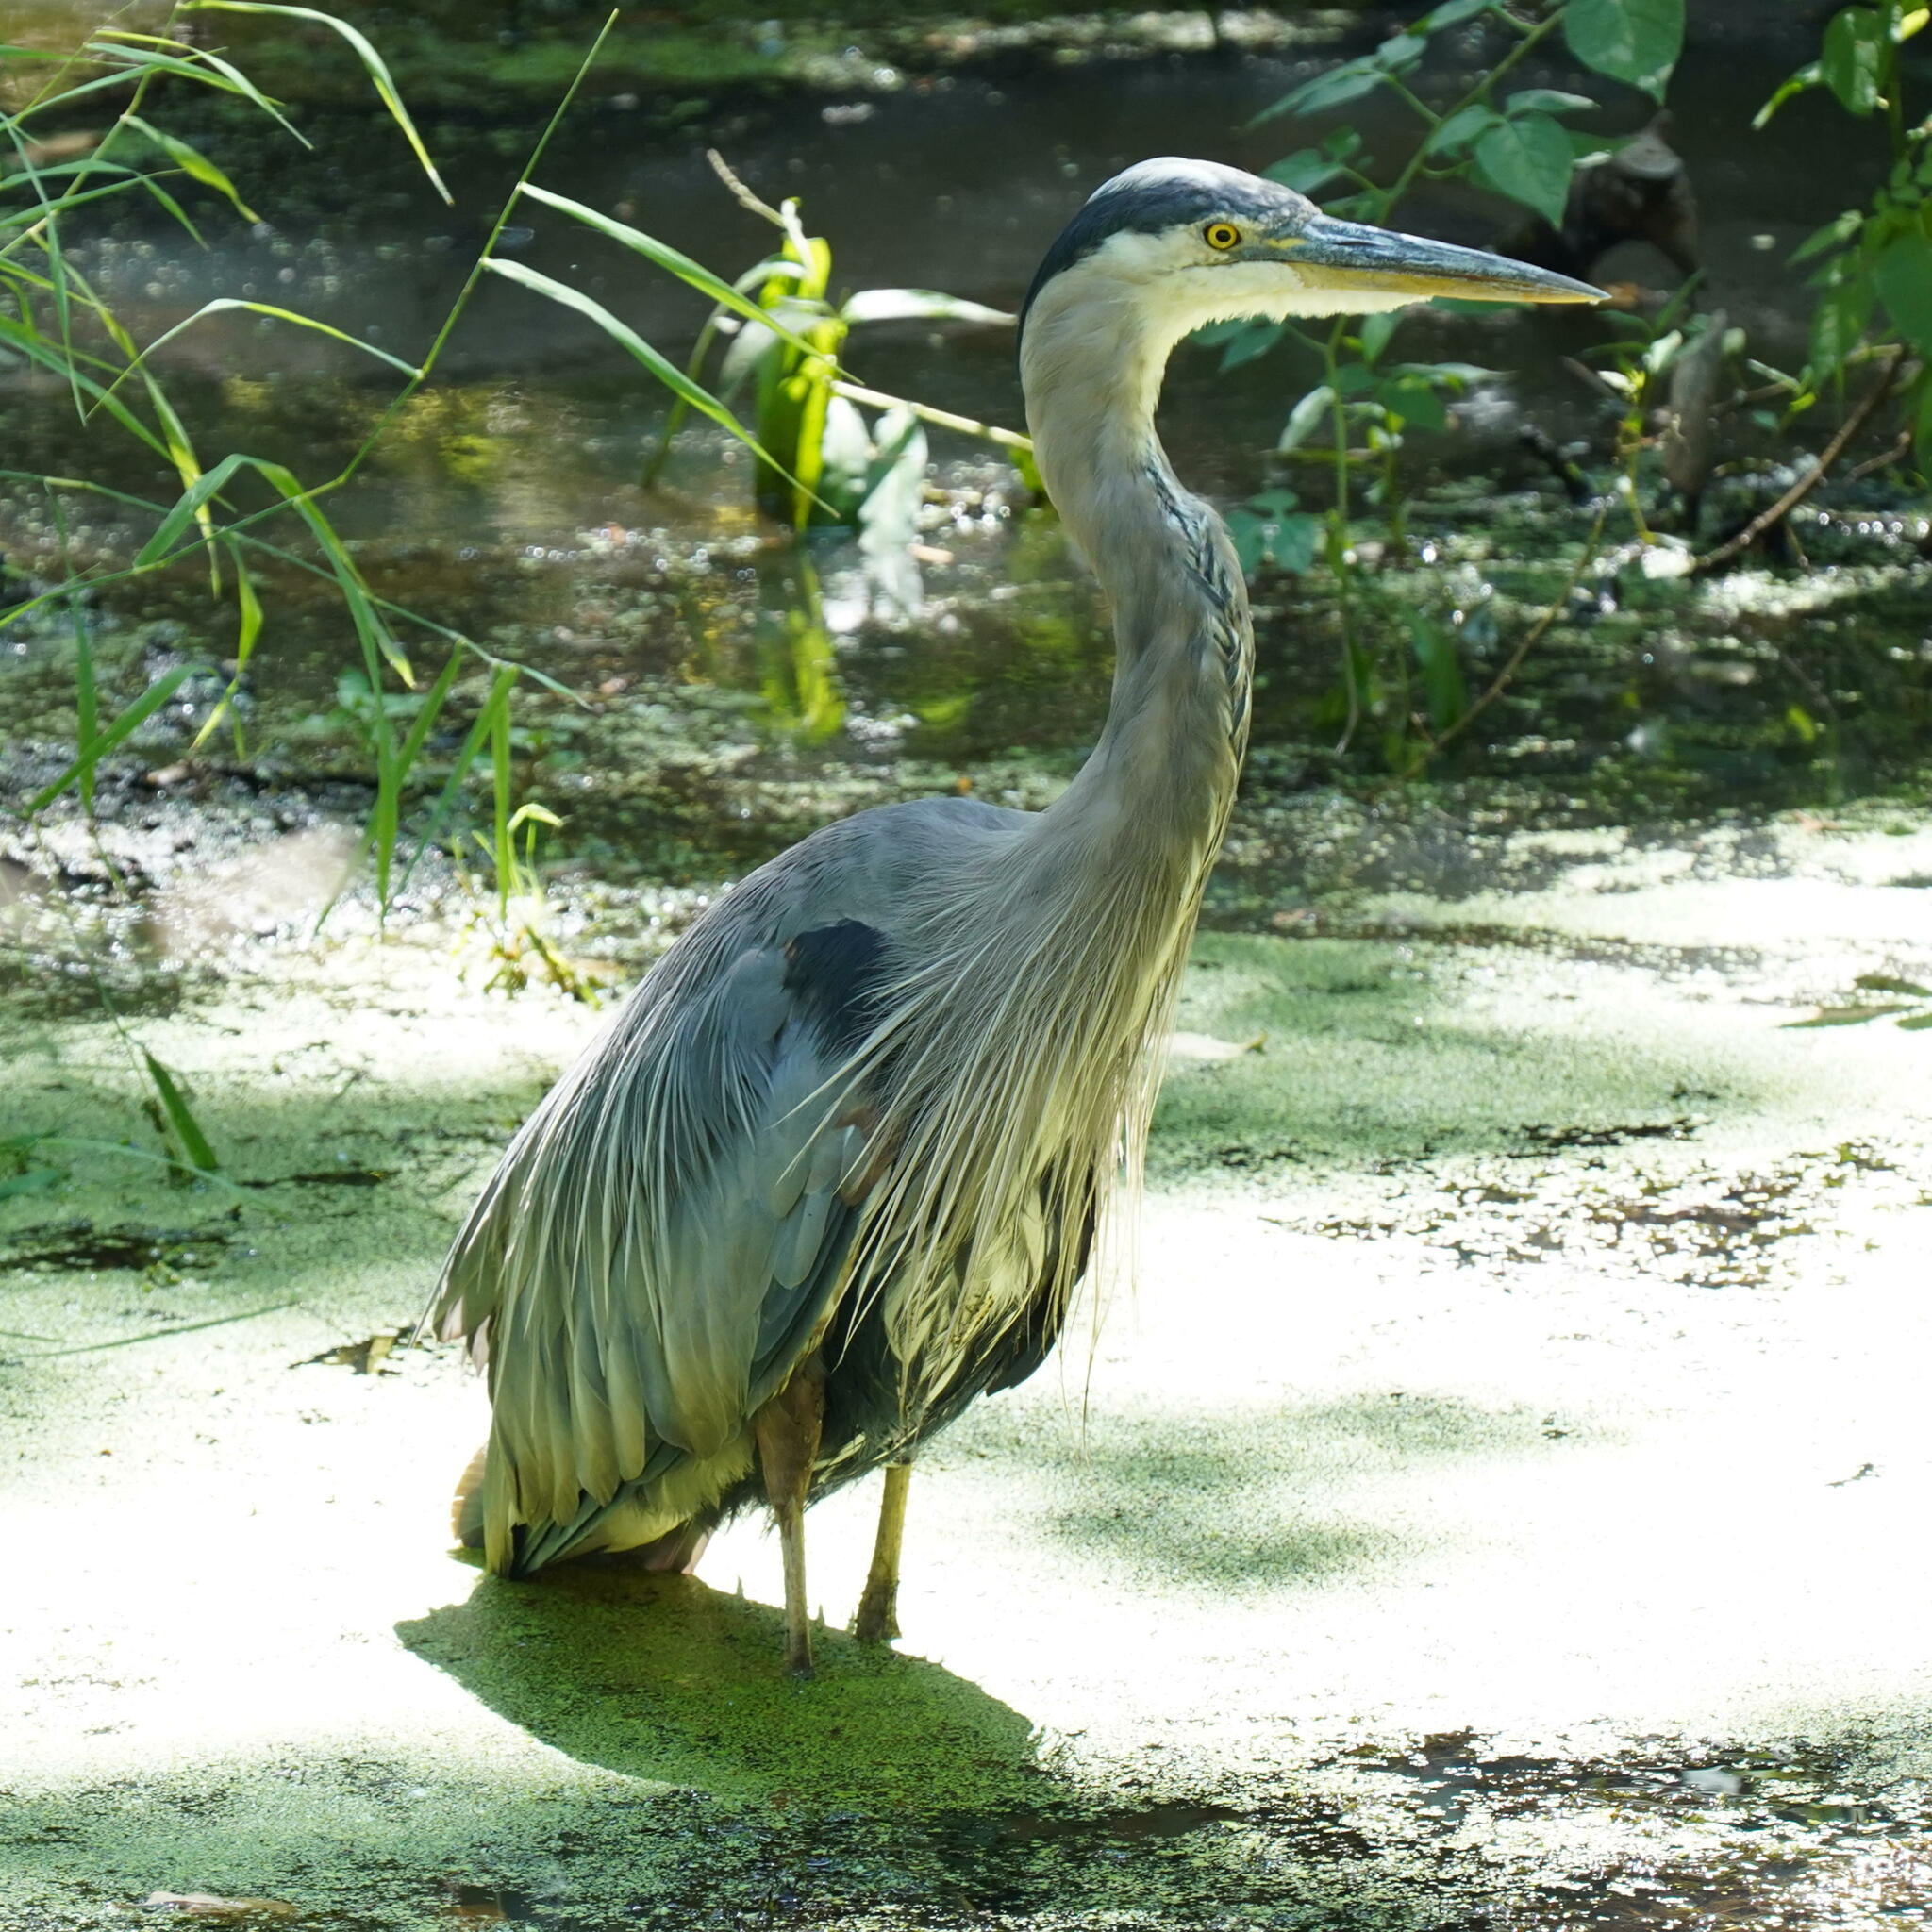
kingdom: Animalia
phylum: Chordata
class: Aves
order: Pelecaniformes
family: Ardeidae
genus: Ardea
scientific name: Ardea herodias
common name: Great blue heron
